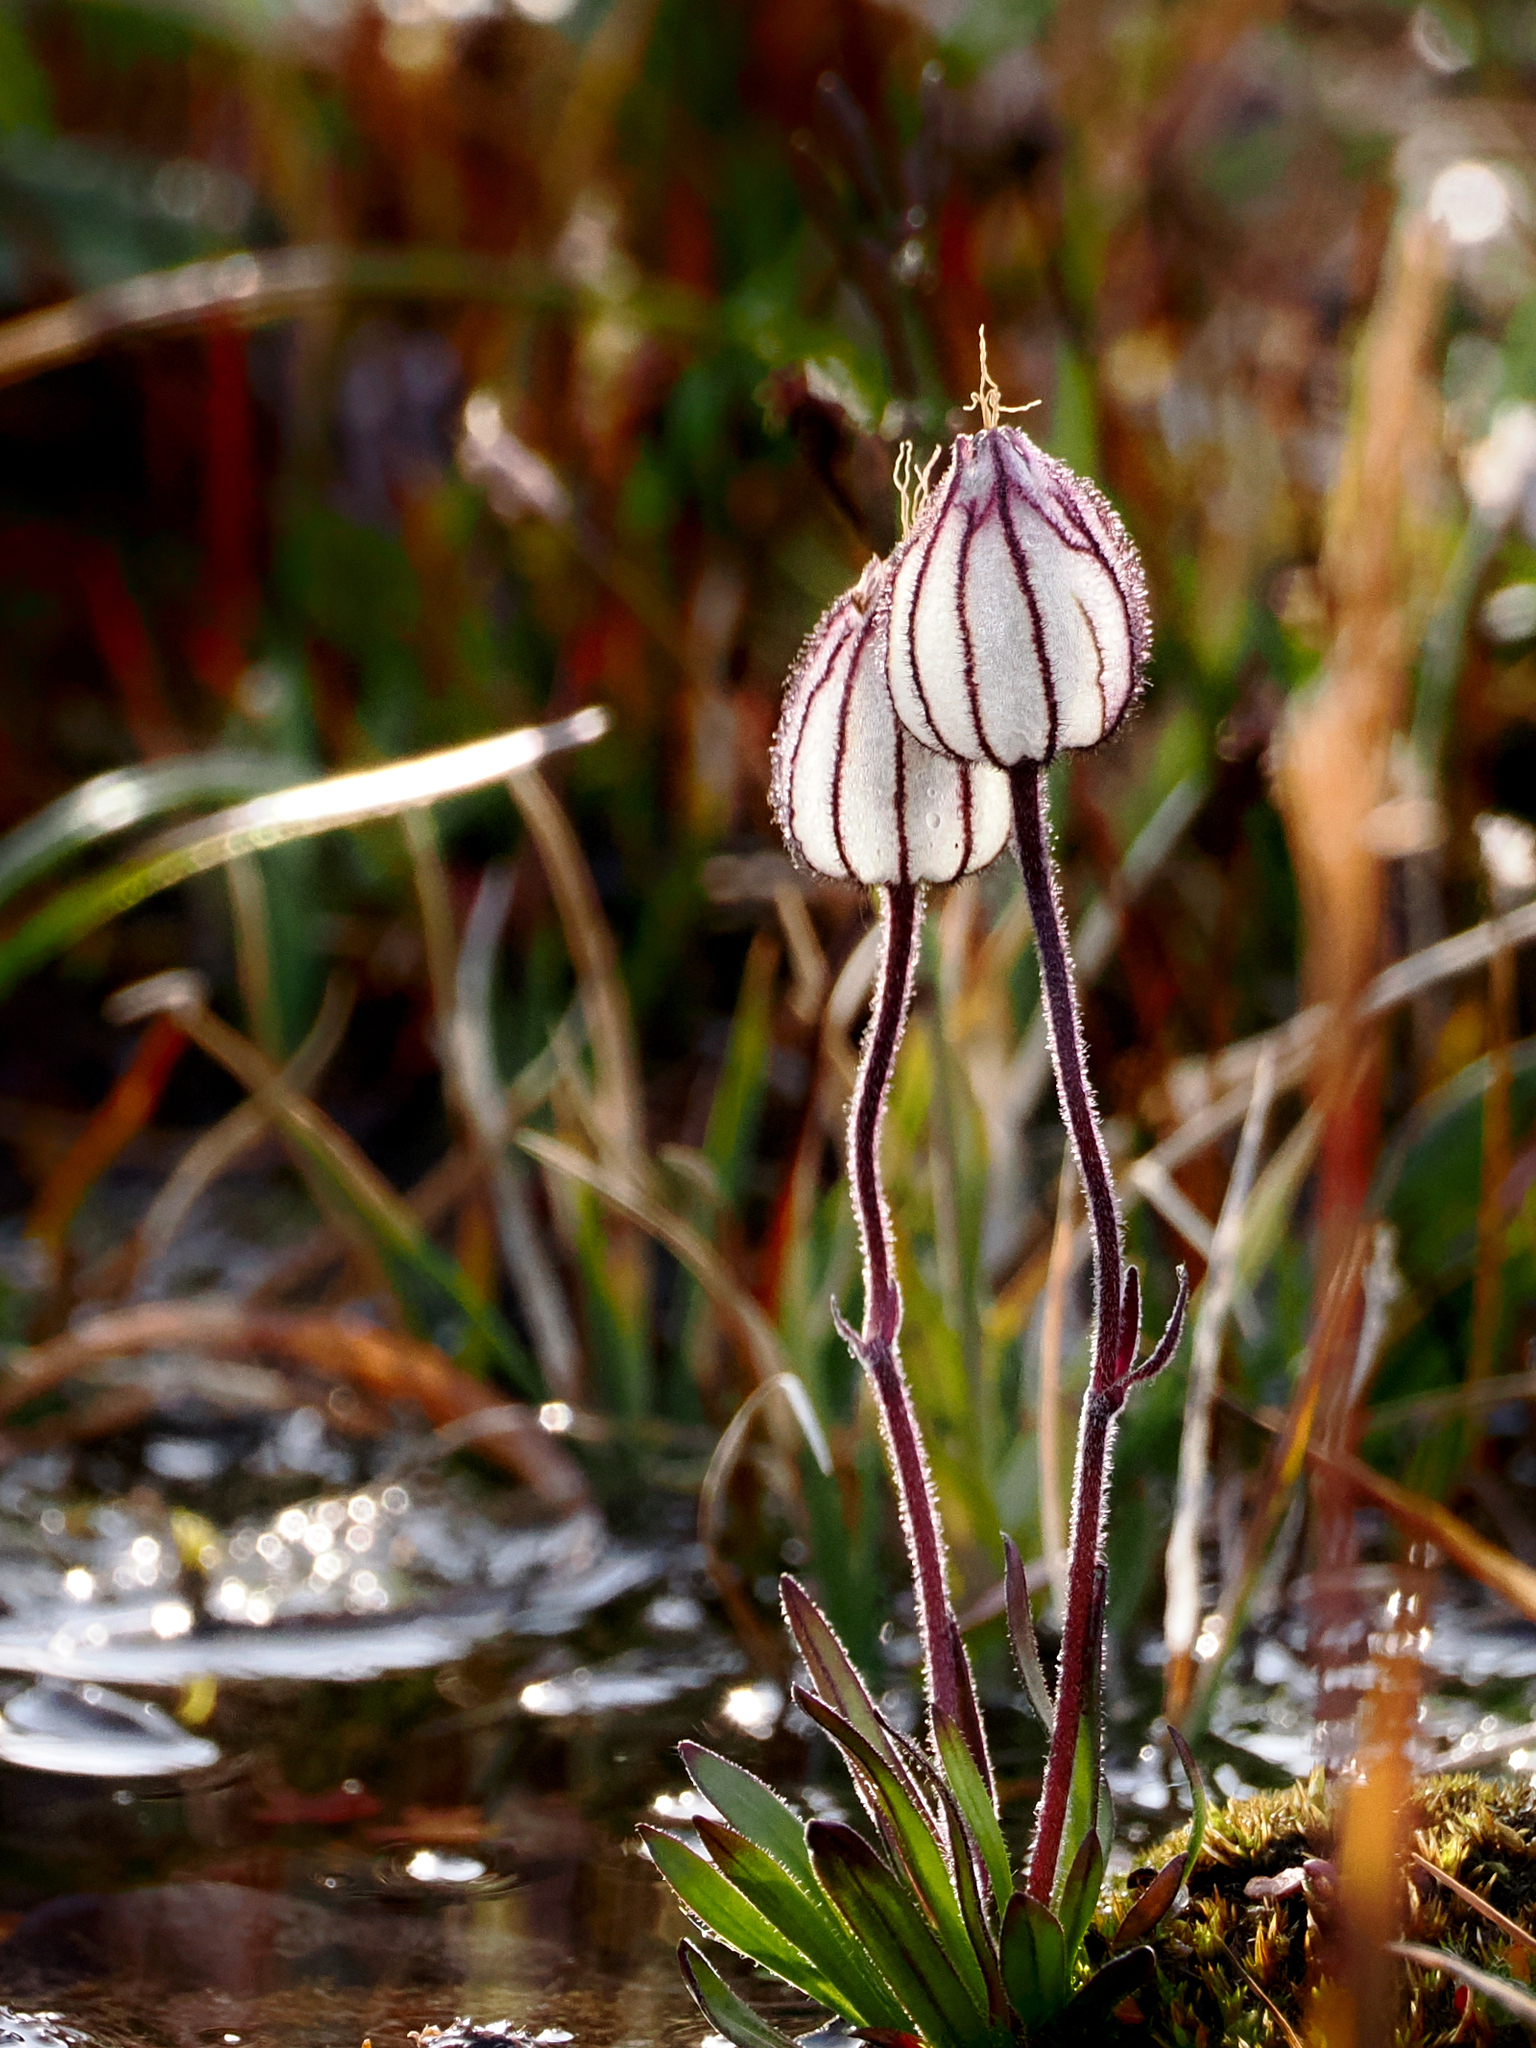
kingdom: Plantae
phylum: Tracheophyta
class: Magnoliopsida
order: Caryophyllales
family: Caryophyllaceae
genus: Silene
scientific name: Silene involucrata
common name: Greater arctic campion
